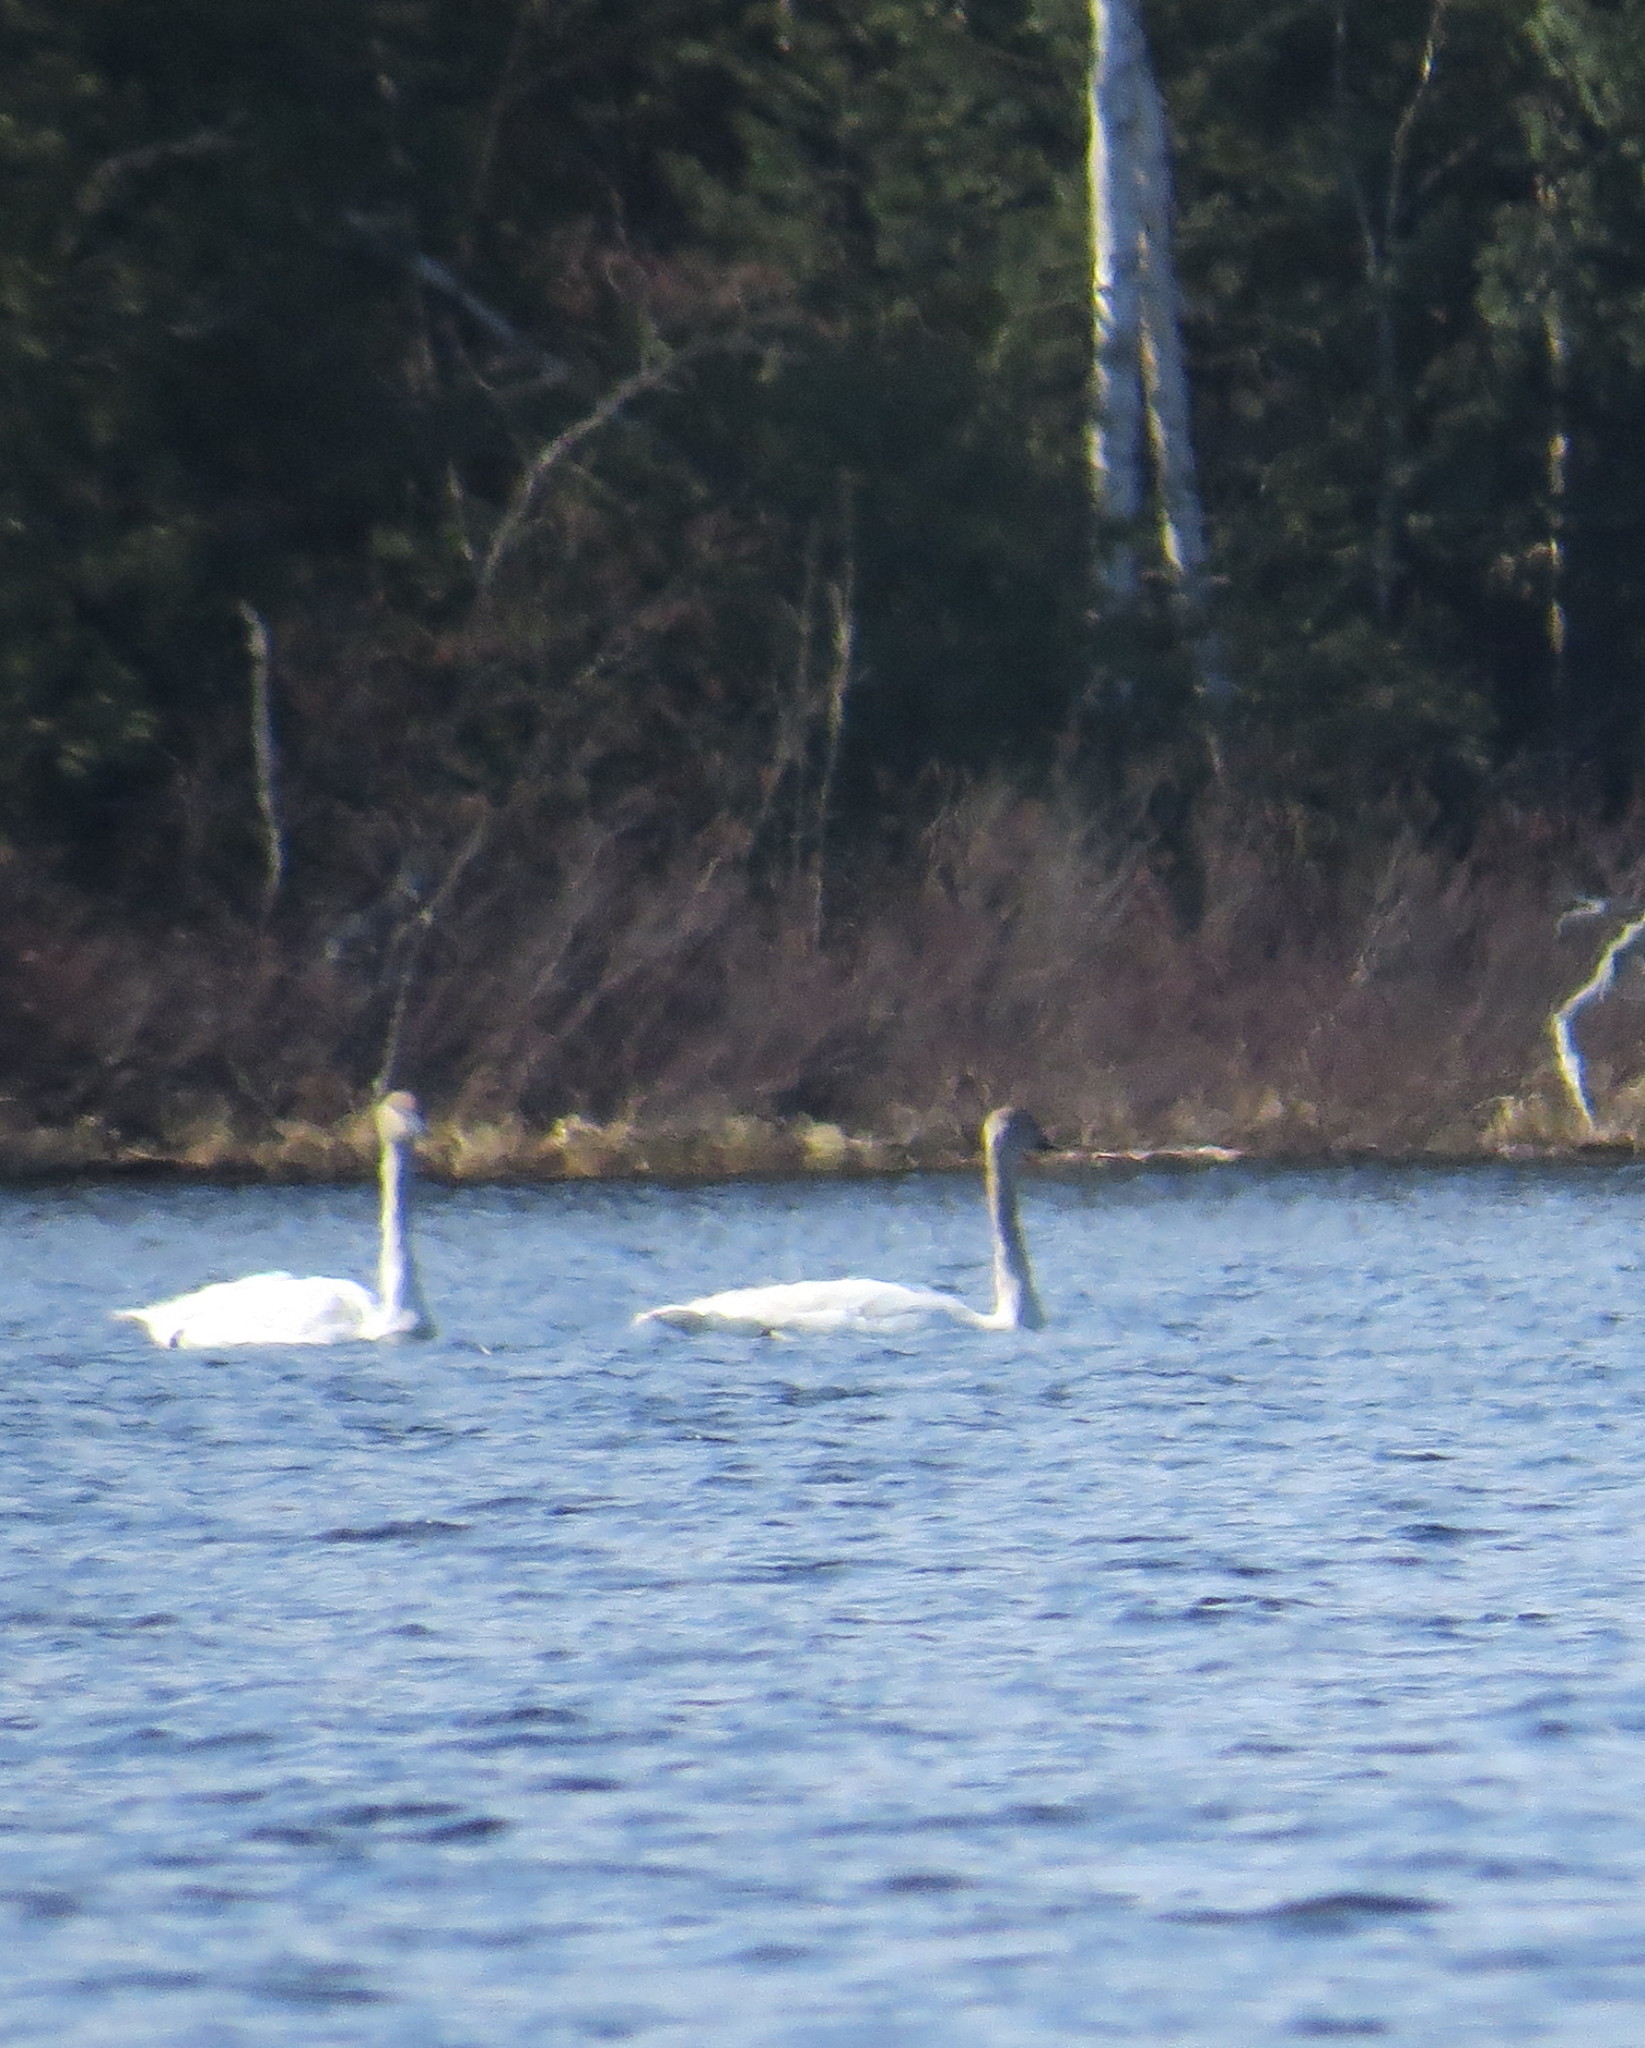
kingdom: Animalia
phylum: Chordata
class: Aves
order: Anseriformes
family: Anatidae
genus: Cygnus
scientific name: Cygnus buccinator
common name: Trumpeter swan
